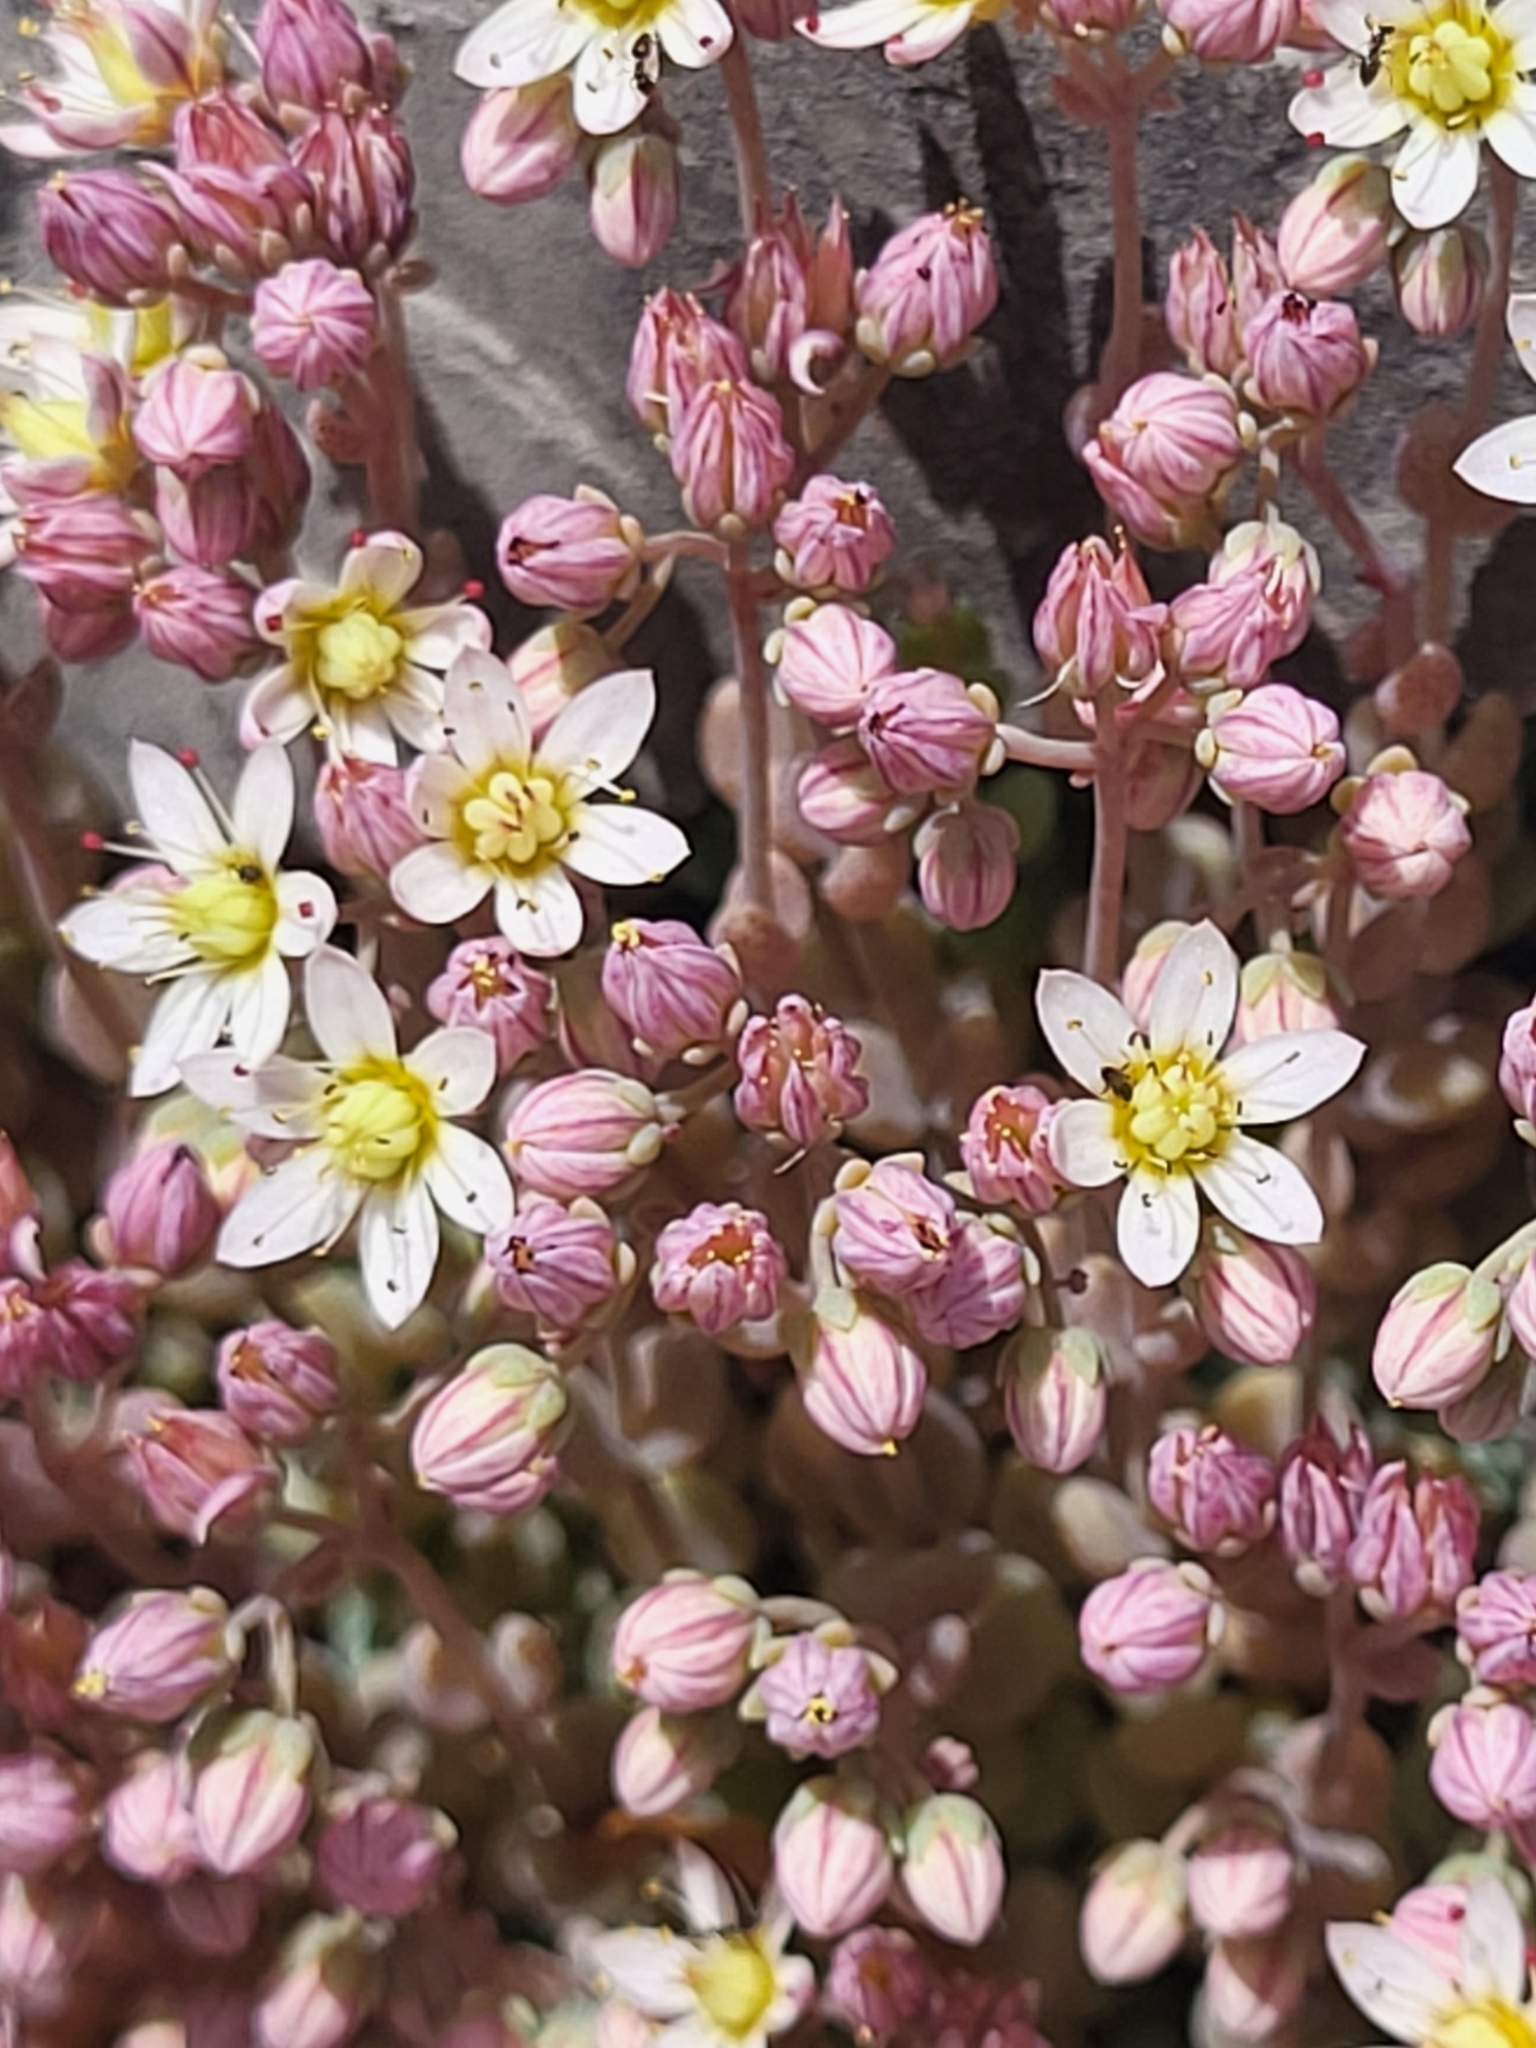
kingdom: Plantae
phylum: Tracheophyta
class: Magnoliopsida
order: Saxifragales
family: Crassulaceae
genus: Sedum
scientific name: Sedum dasyphyllum
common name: Thick-leaf stonecrop
